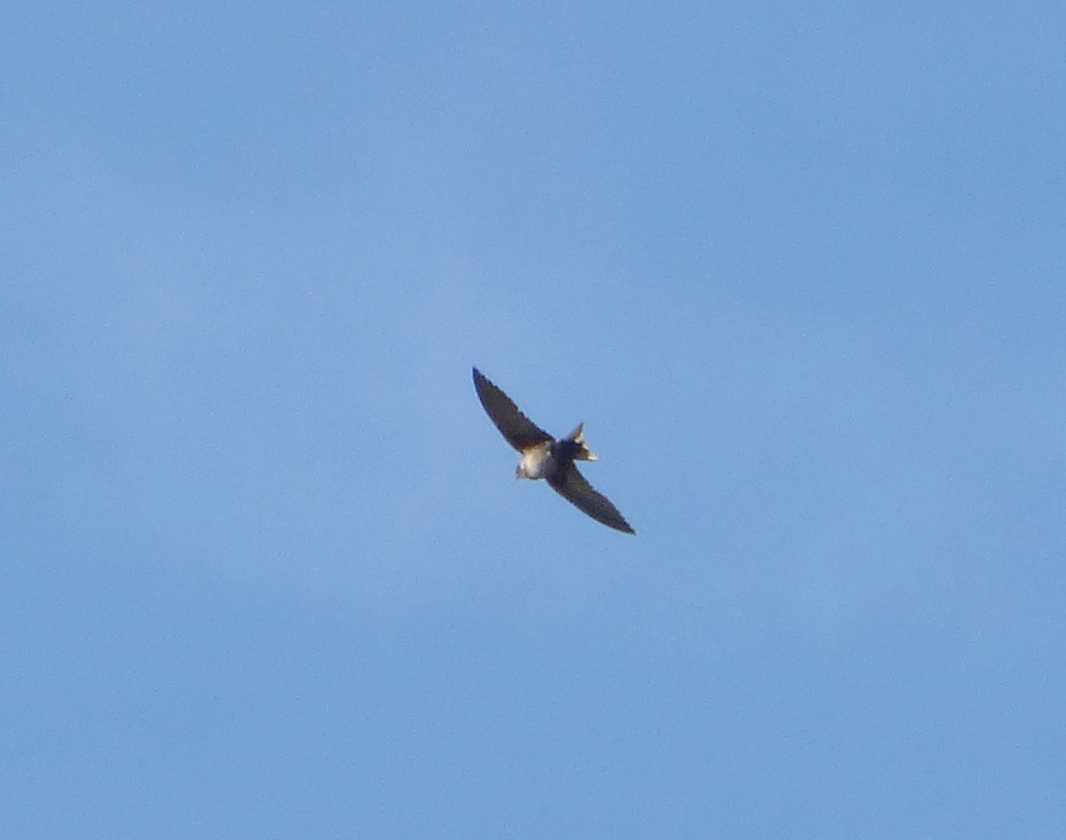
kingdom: Animalia
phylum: Chordata
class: Aves
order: Passeriformes
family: Hirundinidae
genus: Notiochelidon
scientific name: Notiochelidon cyanoleuca
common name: Blue-and-white swallow
